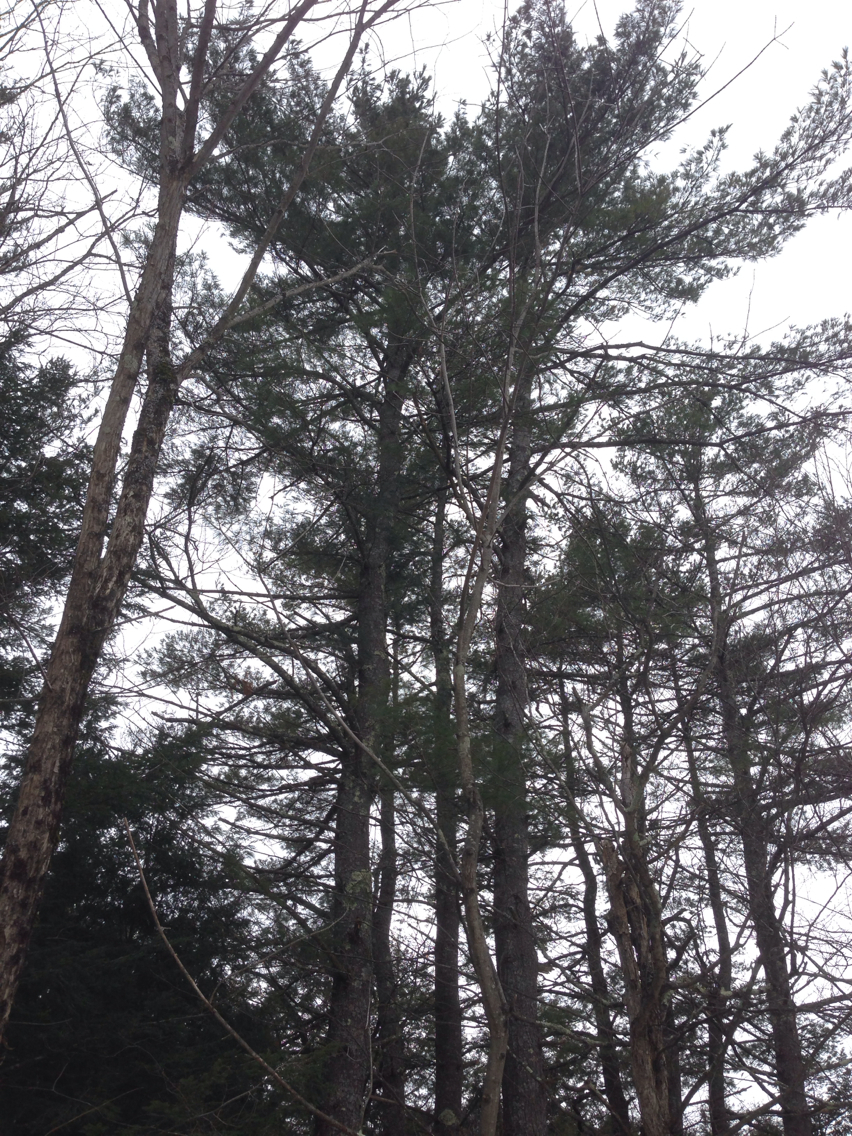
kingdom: Plantae
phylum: Tracheophyta
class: Pinopsida
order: Pinales
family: Pinaceae
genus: Pinus
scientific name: Pinus strobus
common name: Weymouth pine
